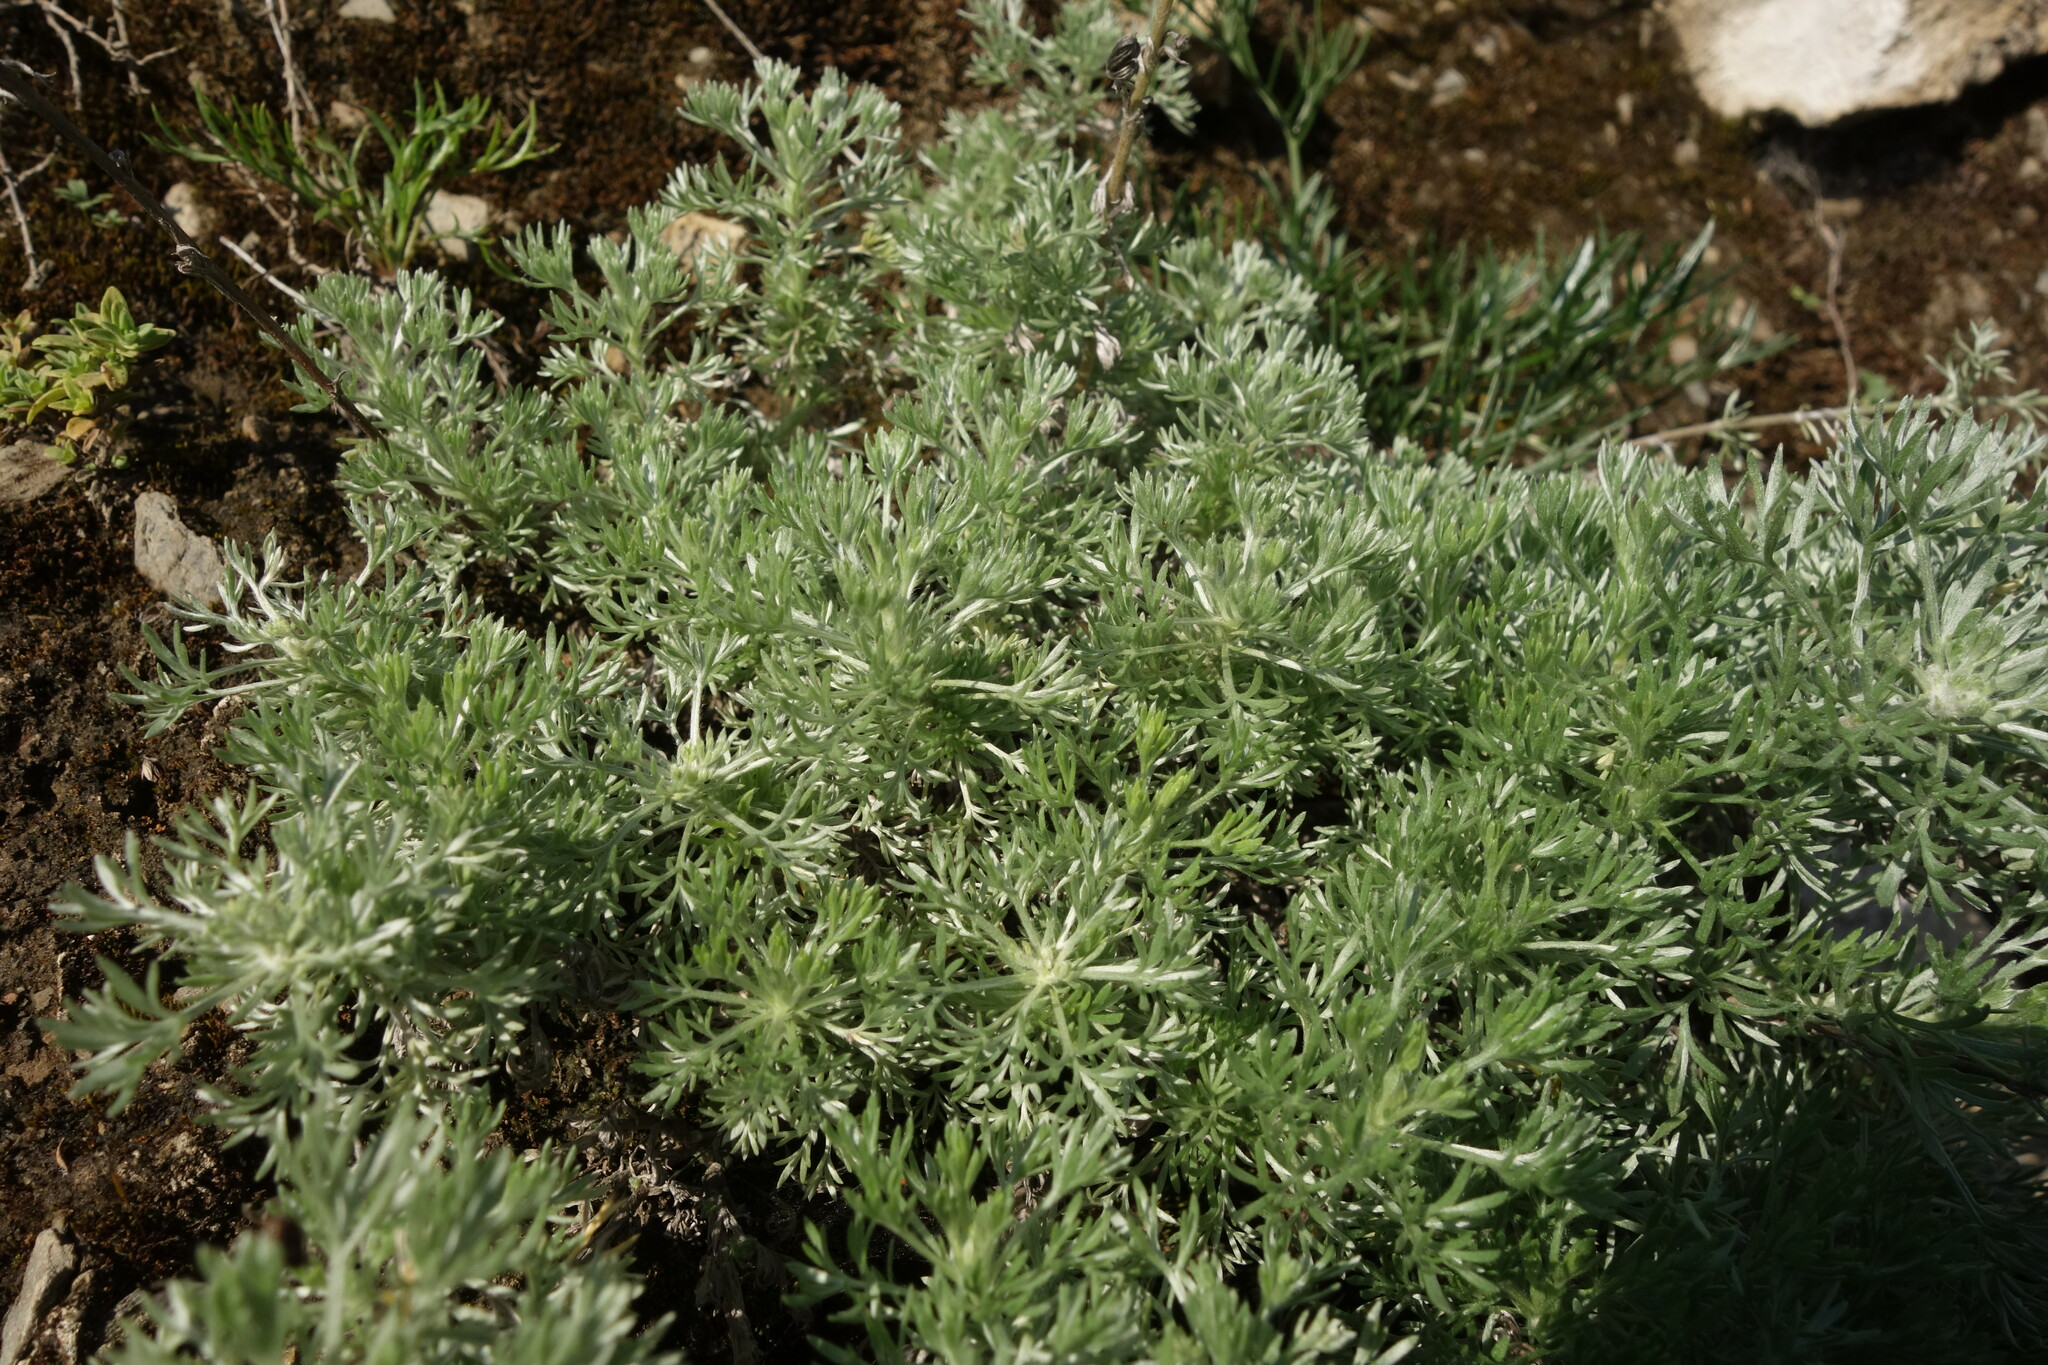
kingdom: Plantae
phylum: Tracheophyta
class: Magnoliopsida
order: Asterales
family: Asteraceae
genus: Artemisia
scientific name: Artemisia frigida
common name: Prairie sagewort
